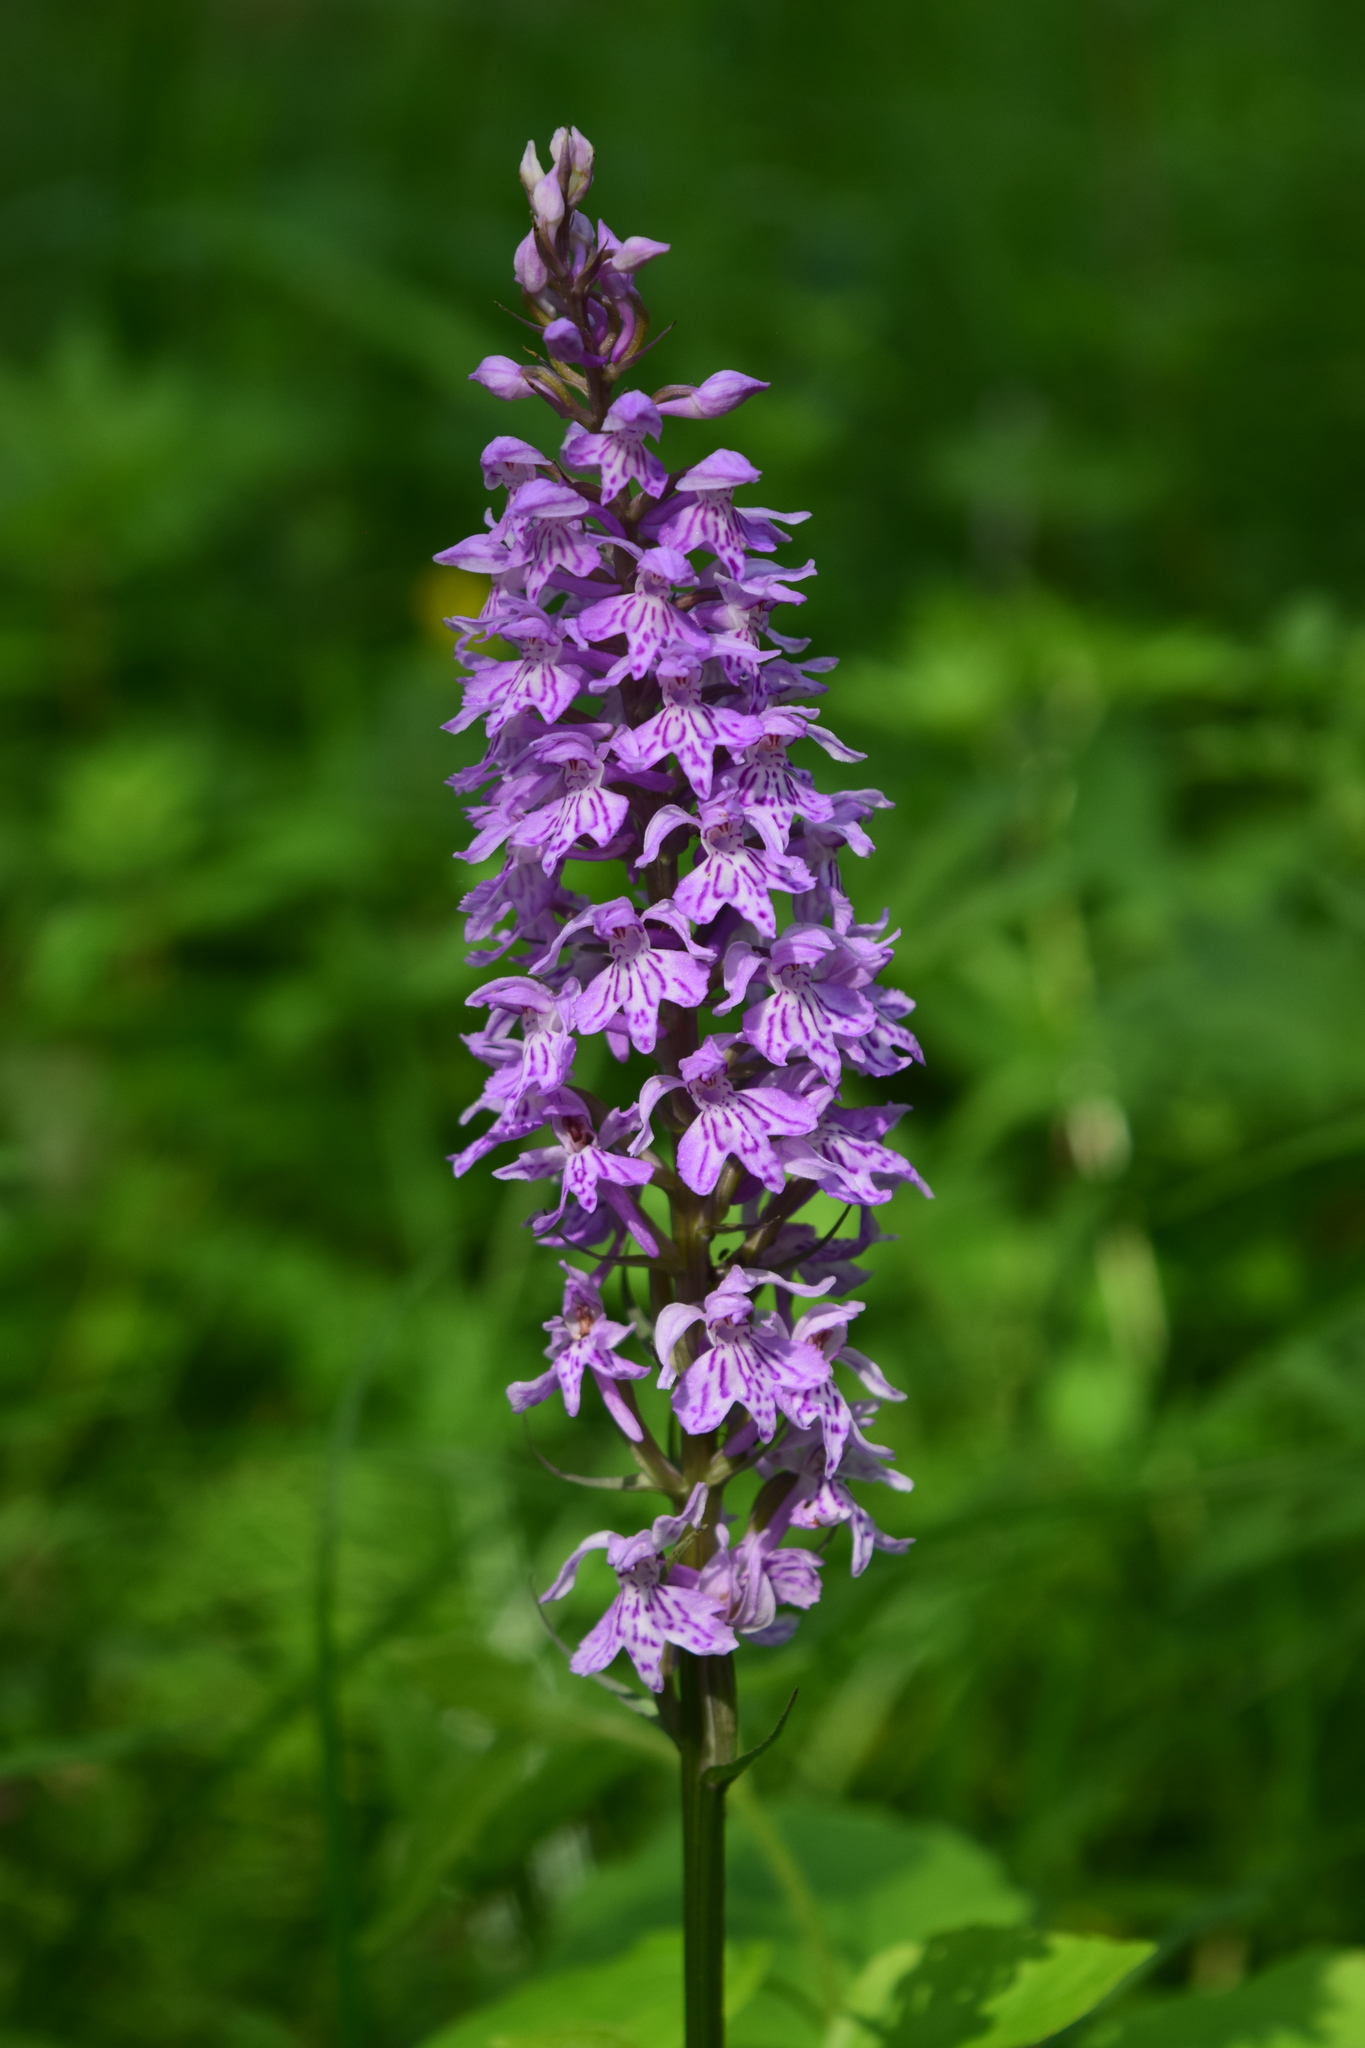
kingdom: Plantae
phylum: Tracheophyta
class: Liliopsida
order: Asparagales
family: Orchidaceae
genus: Dactylorhiza
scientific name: Dactylorhiza maculata
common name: Heath spotted-orchid
